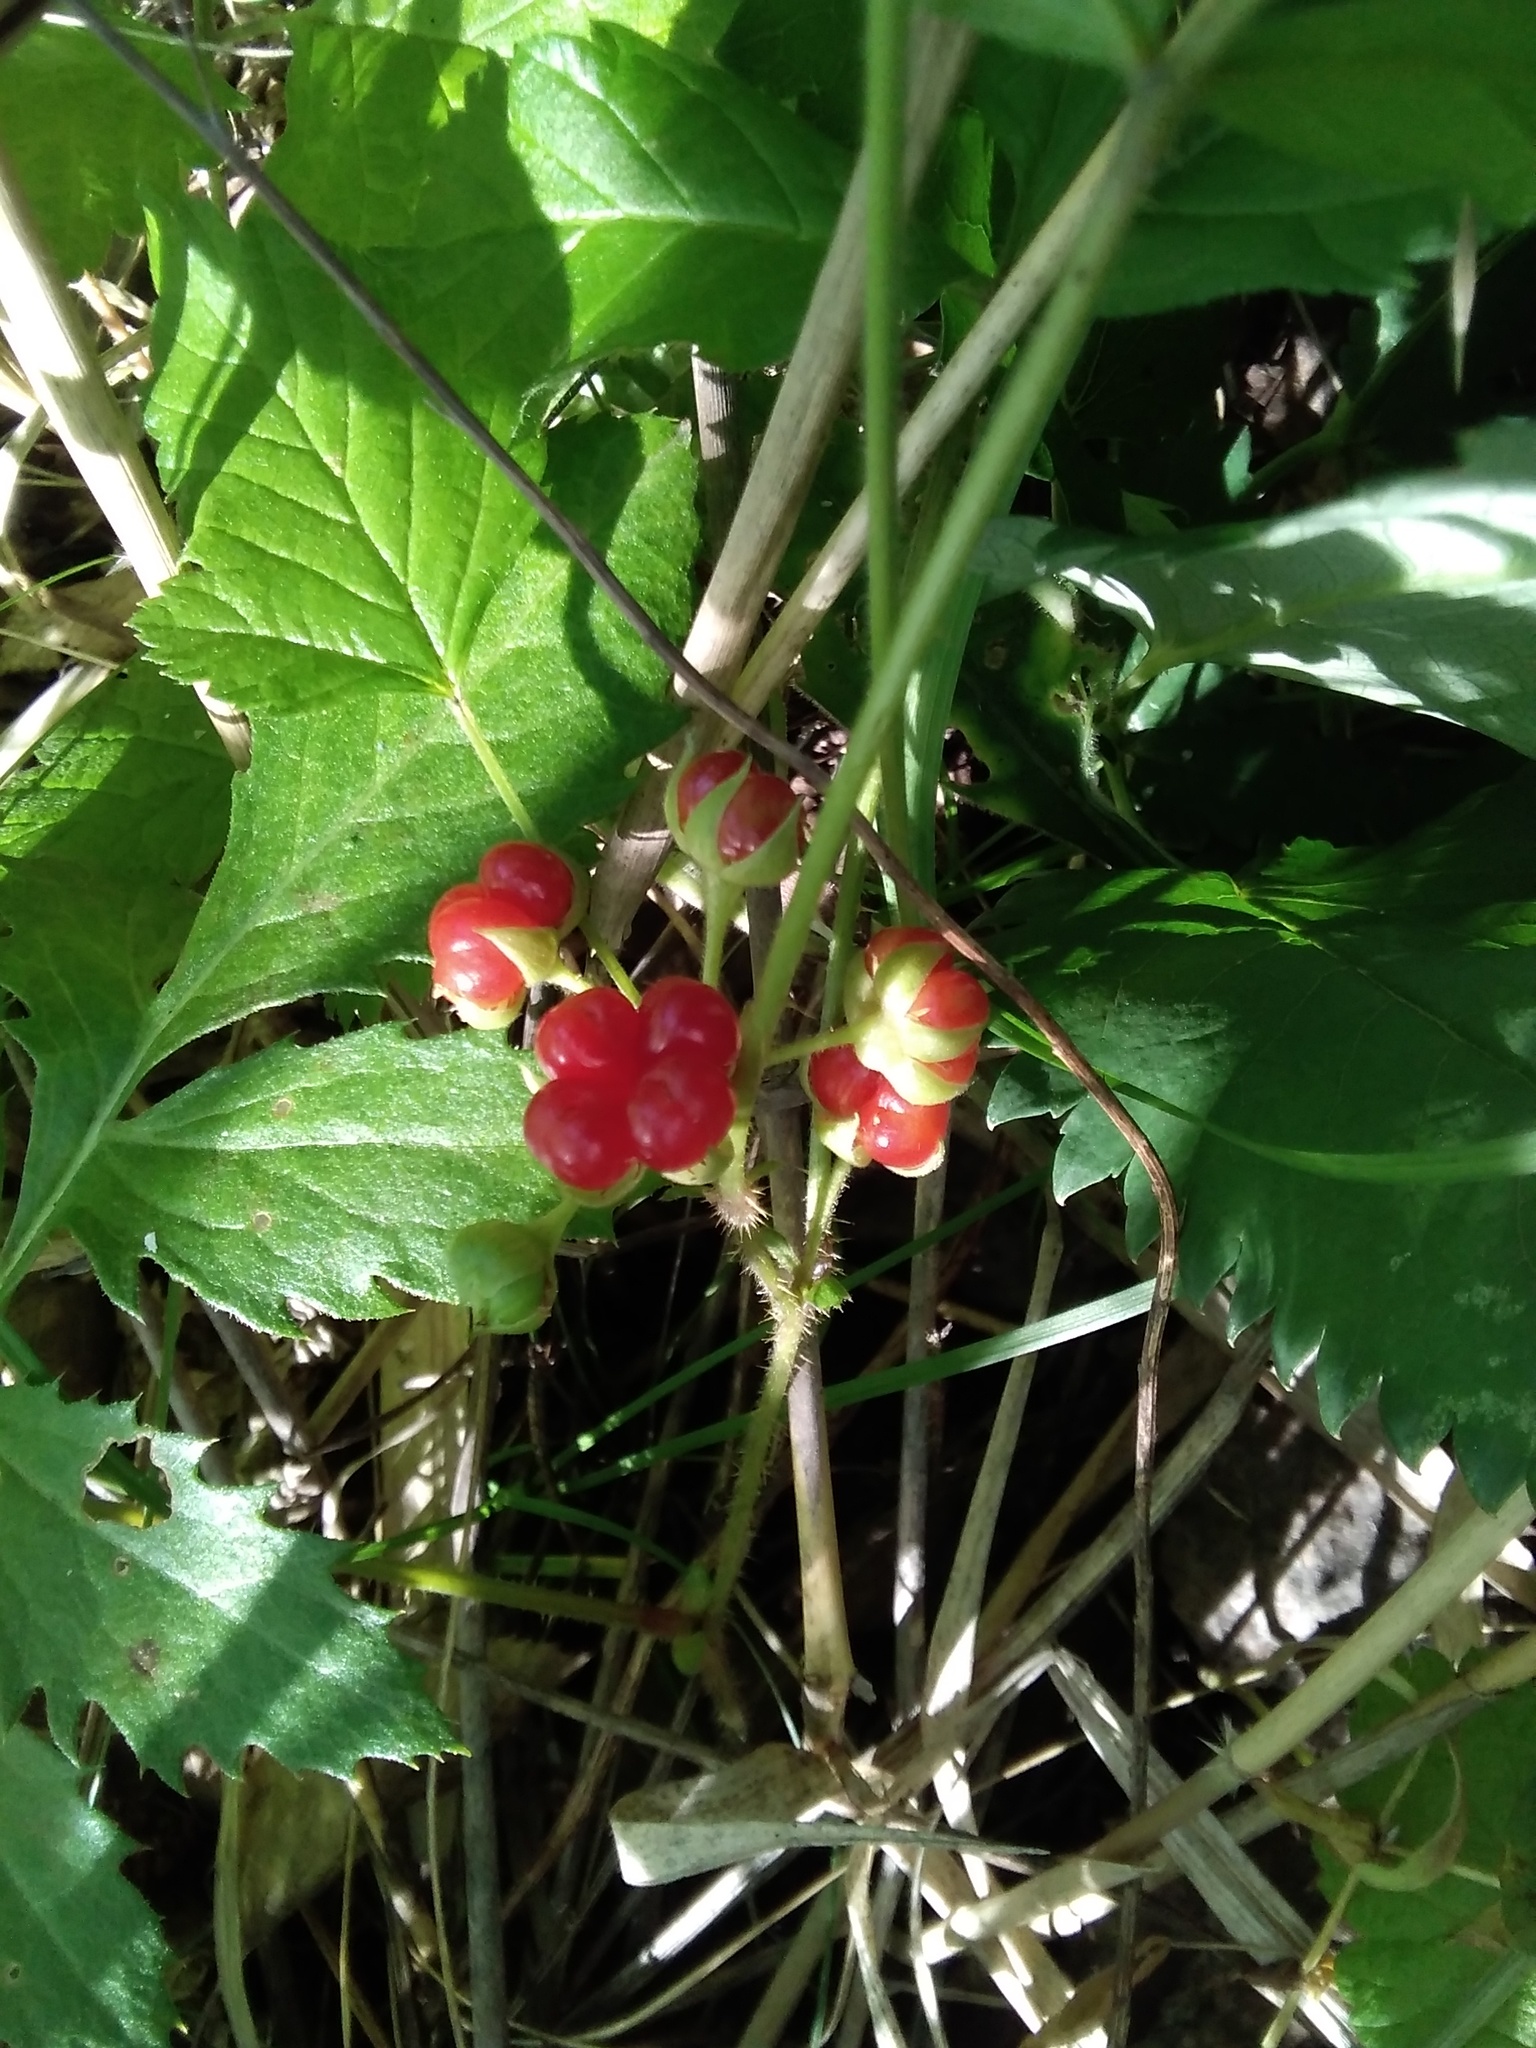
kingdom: Plantae
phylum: Tracheophyta
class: Magnoliopsida
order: Rosales
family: Rosaceae
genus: Rubus
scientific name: Rubus saxatilis
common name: Stone bramble
